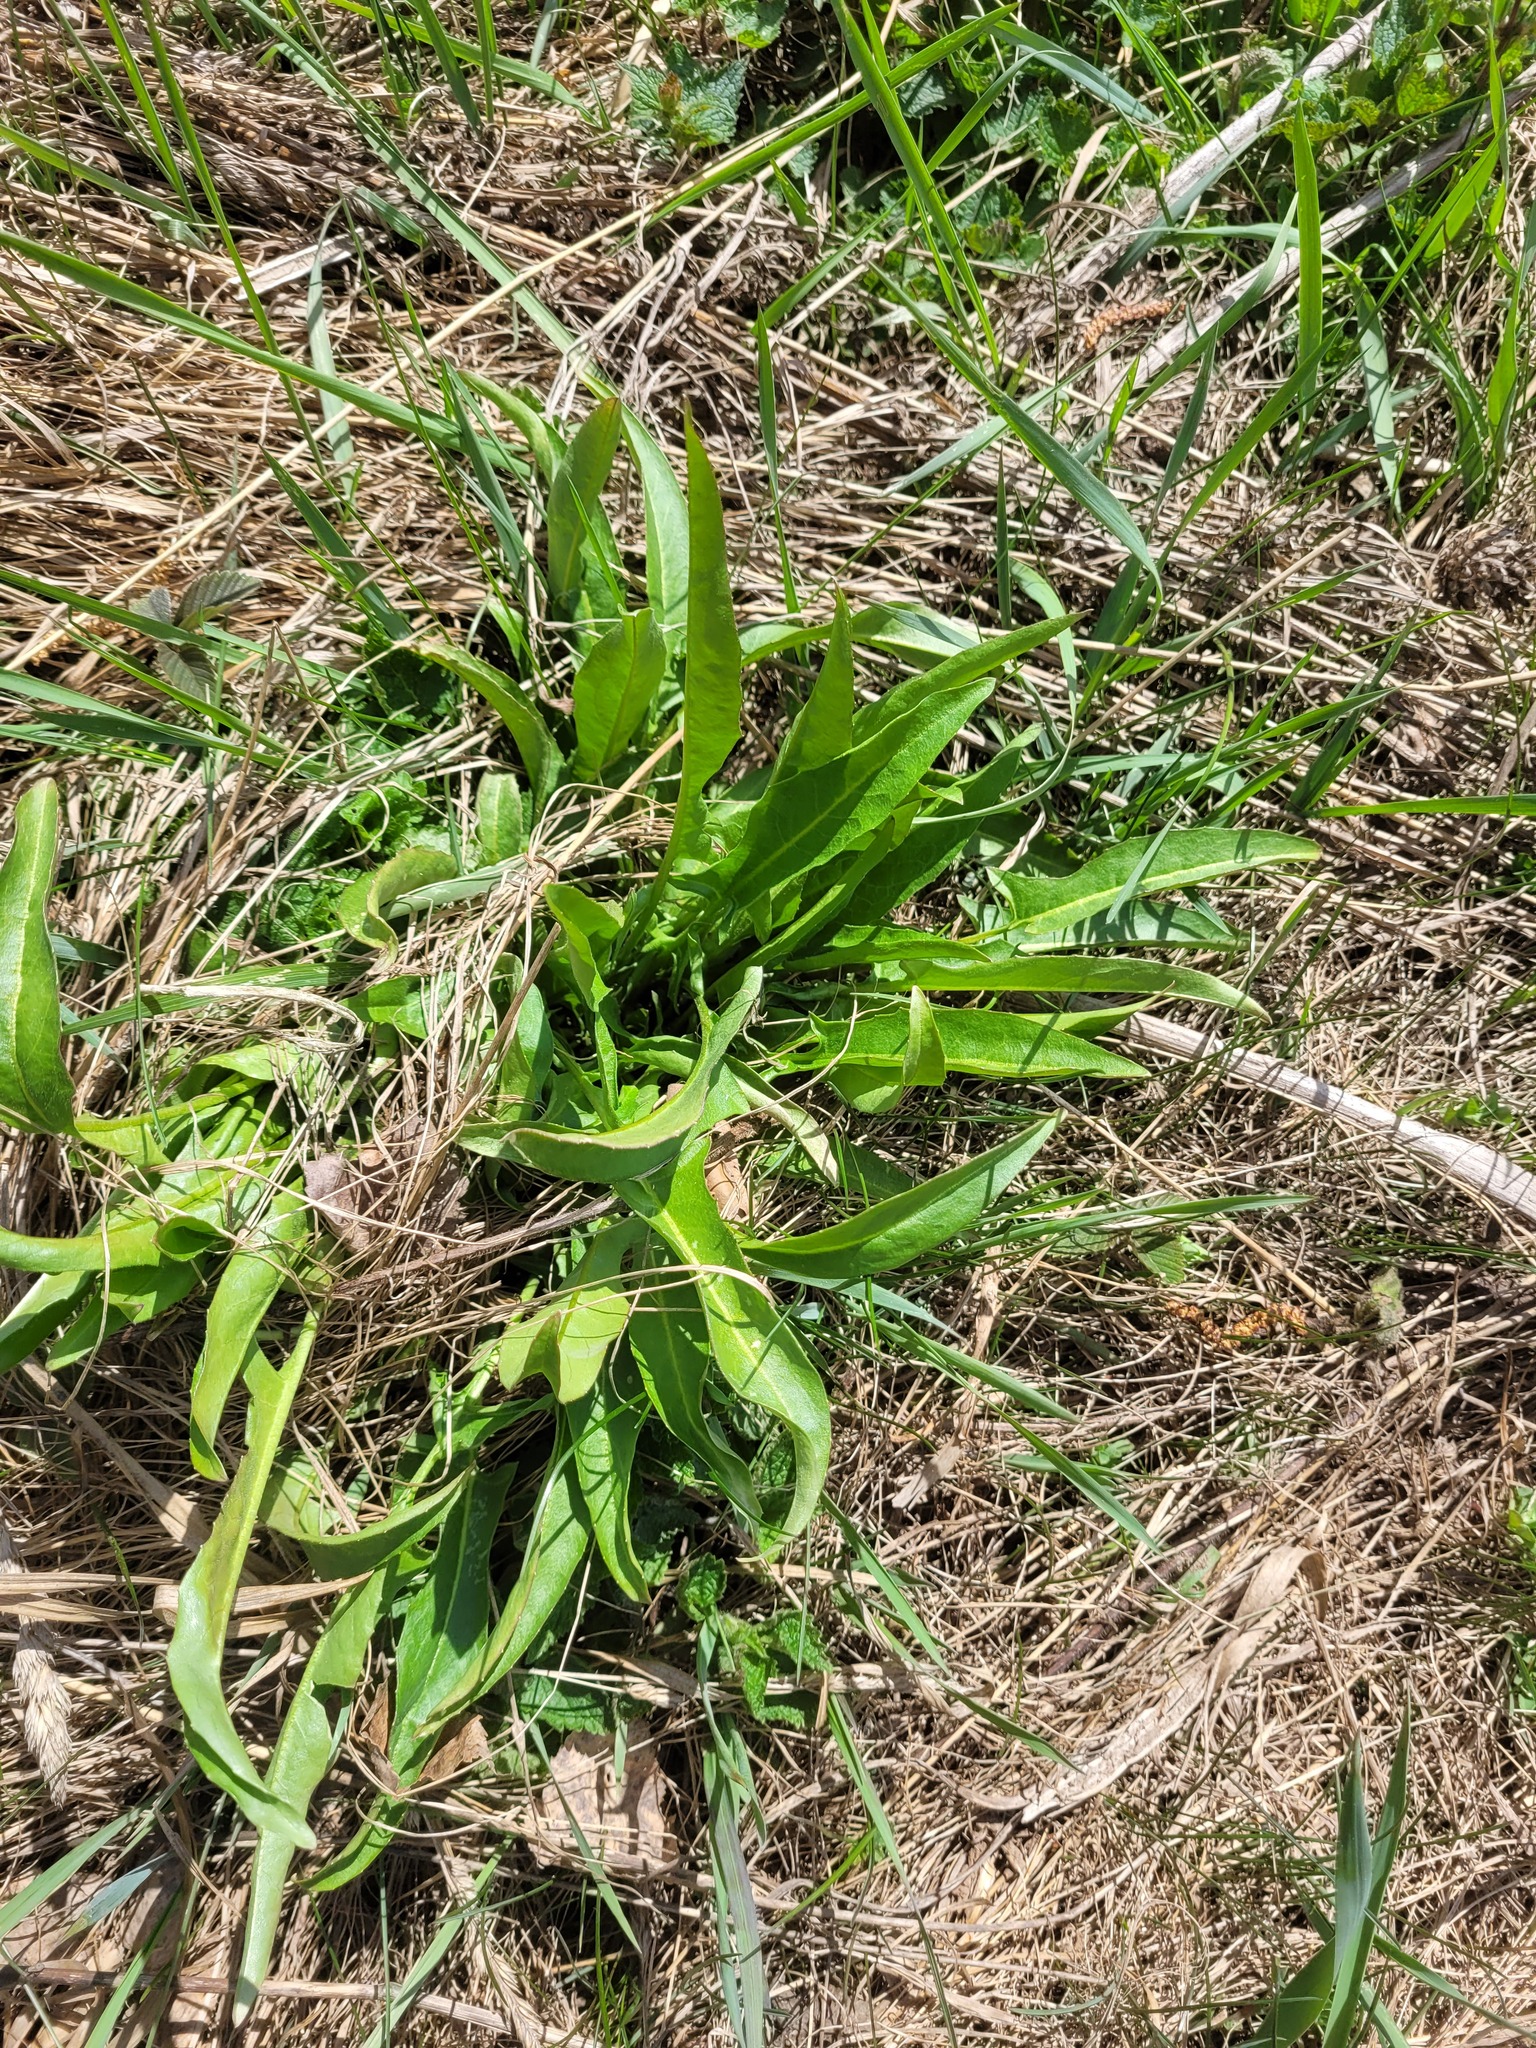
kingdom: Plantae
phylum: Tracheophyta
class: Magnoliopsida
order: Brassicales
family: Brassicaceae
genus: Bunias
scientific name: Bunias orientalis
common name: Warty-cabbage
